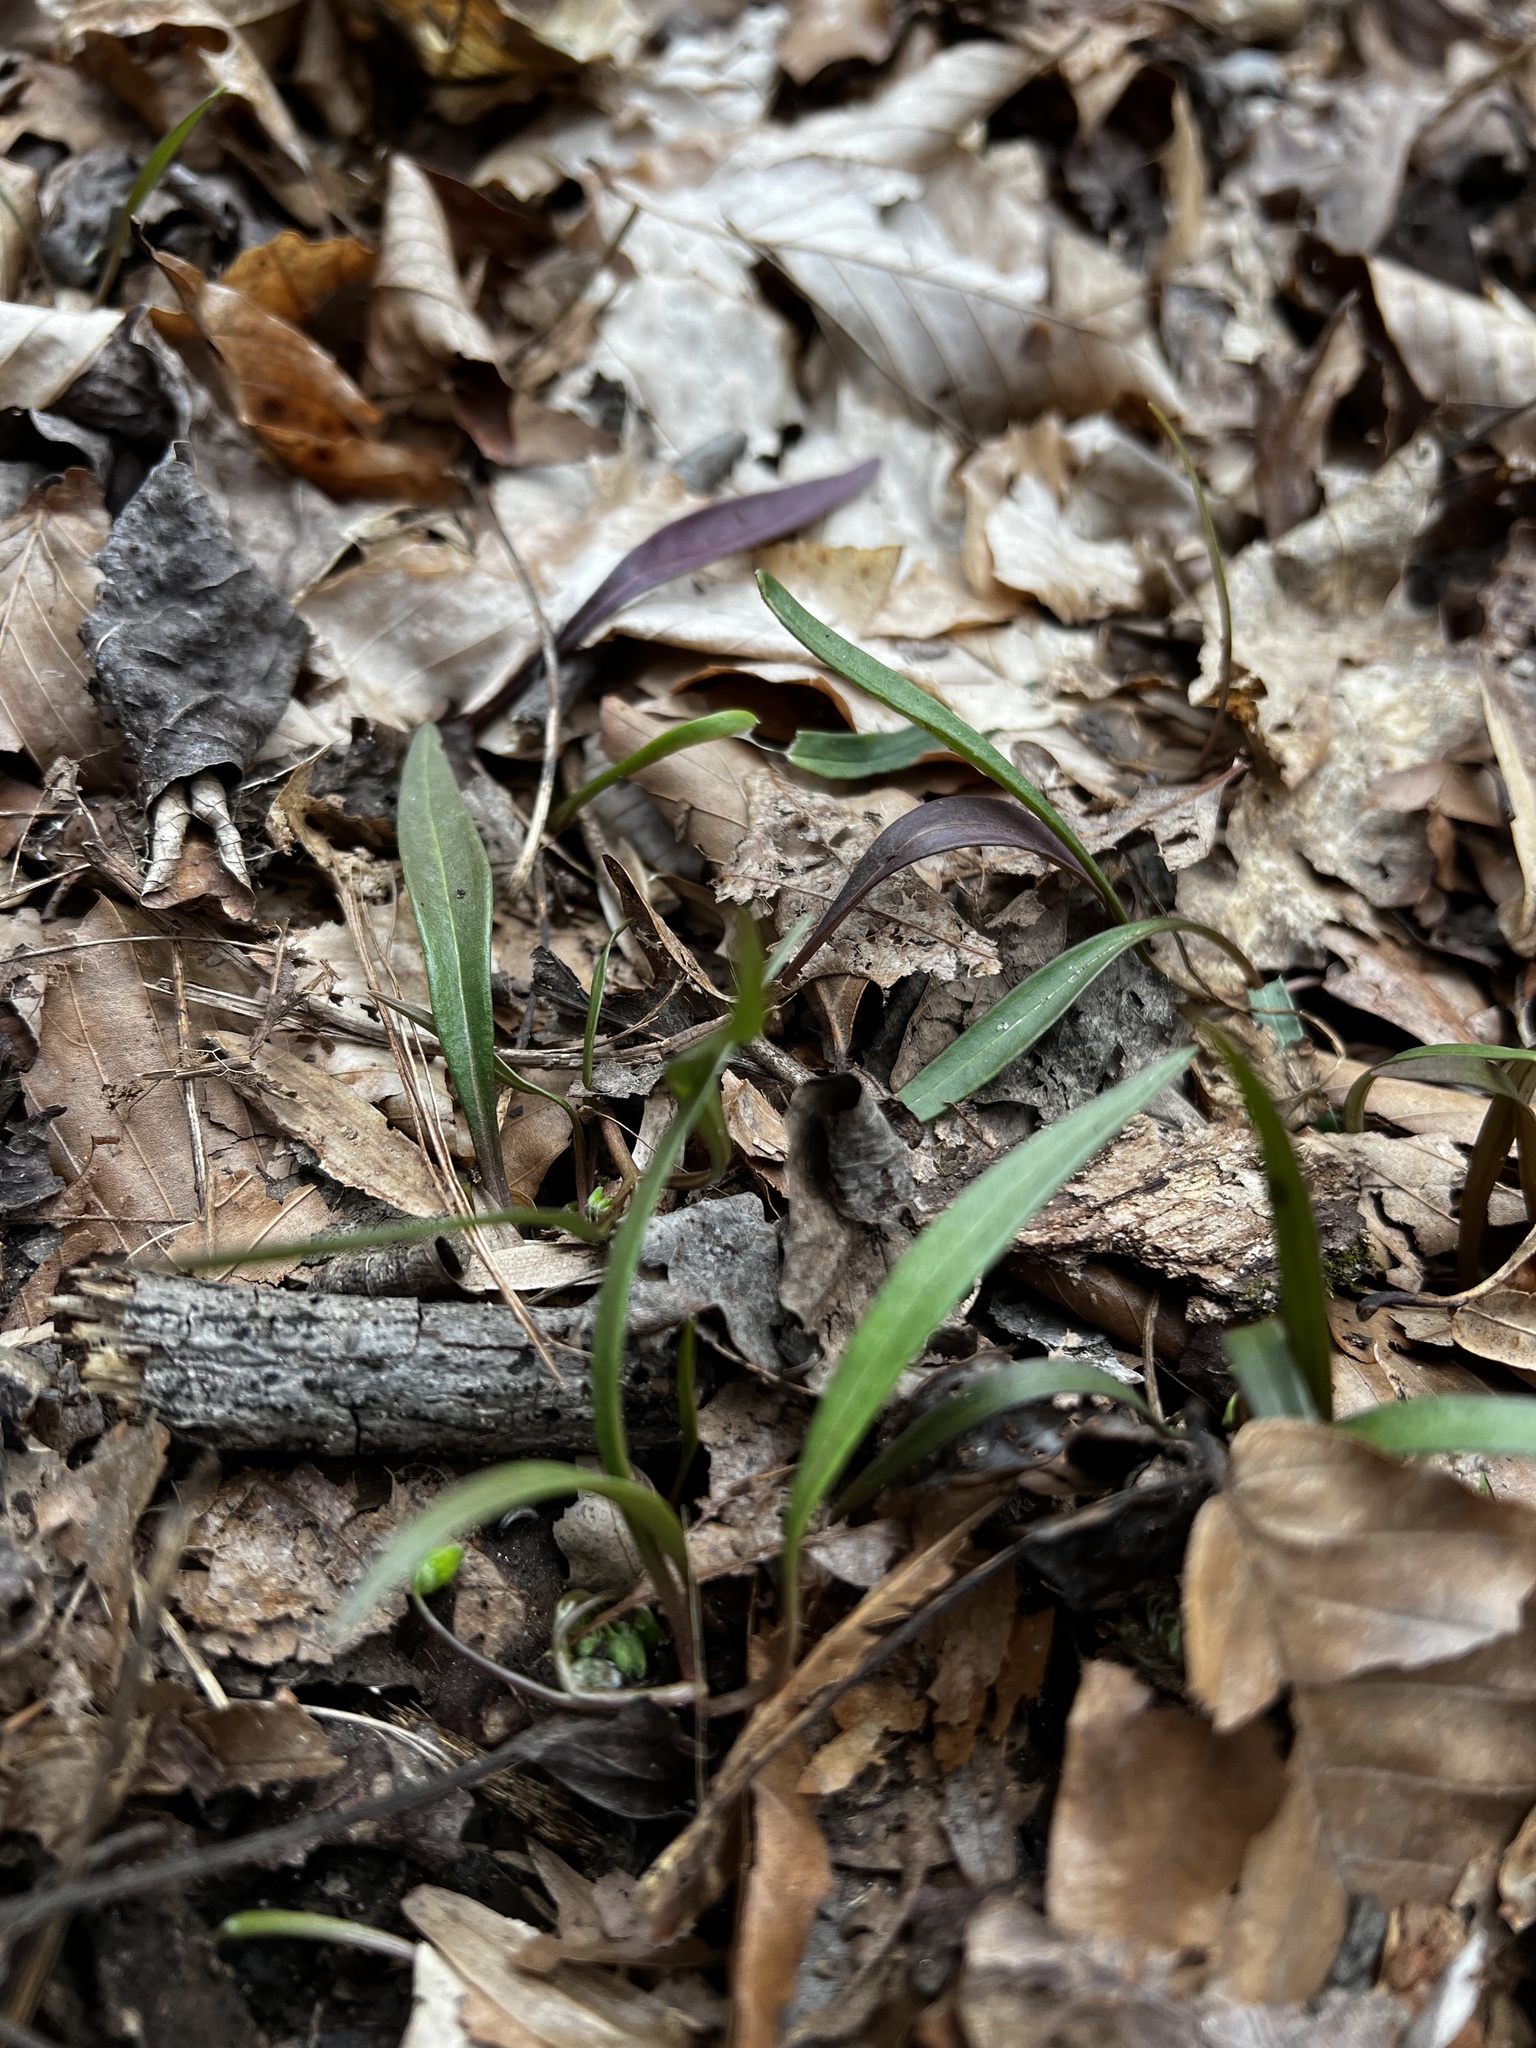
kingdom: Plantae
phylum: Tracheophyta
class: Magnoliopsida
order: Caryophyllales
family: Montiaceae
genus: Claytonia
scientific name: Claytonia virginica
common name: Virginia springbeauty
